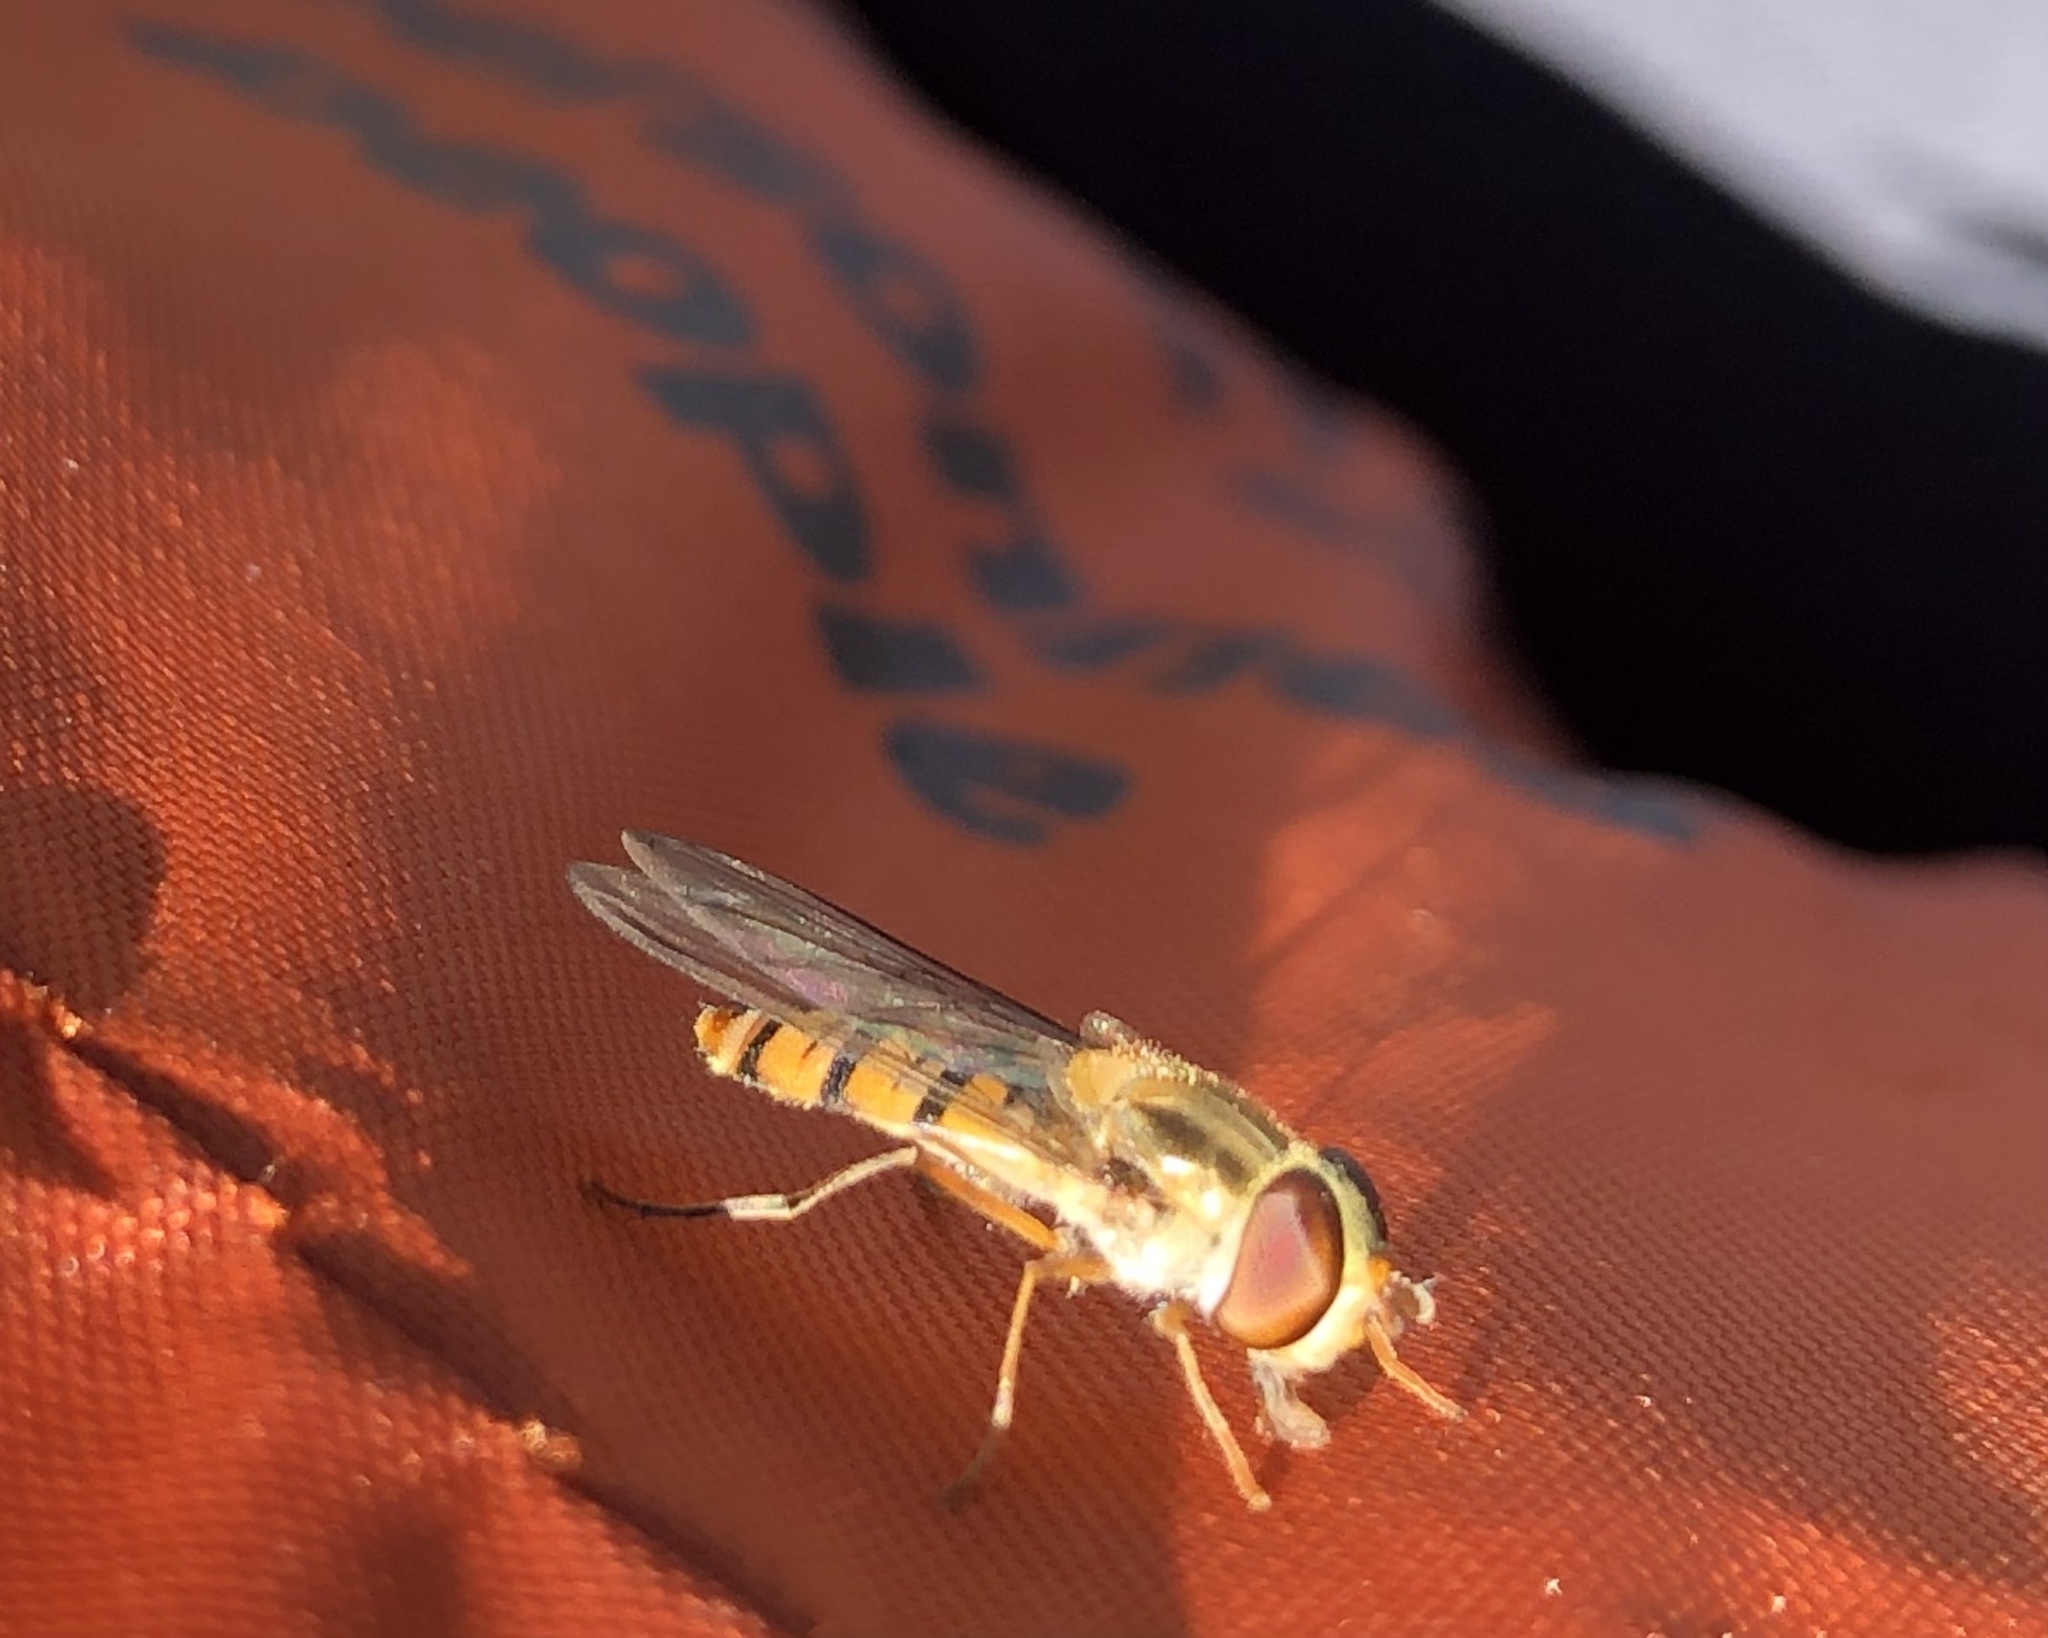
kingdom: Animalia
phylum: Arthropoda
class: Insecta
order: Diptera
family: Syrphidae
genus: Episyrphus
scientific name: Episyrphus balteatus
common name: Marmalade hoverfly
